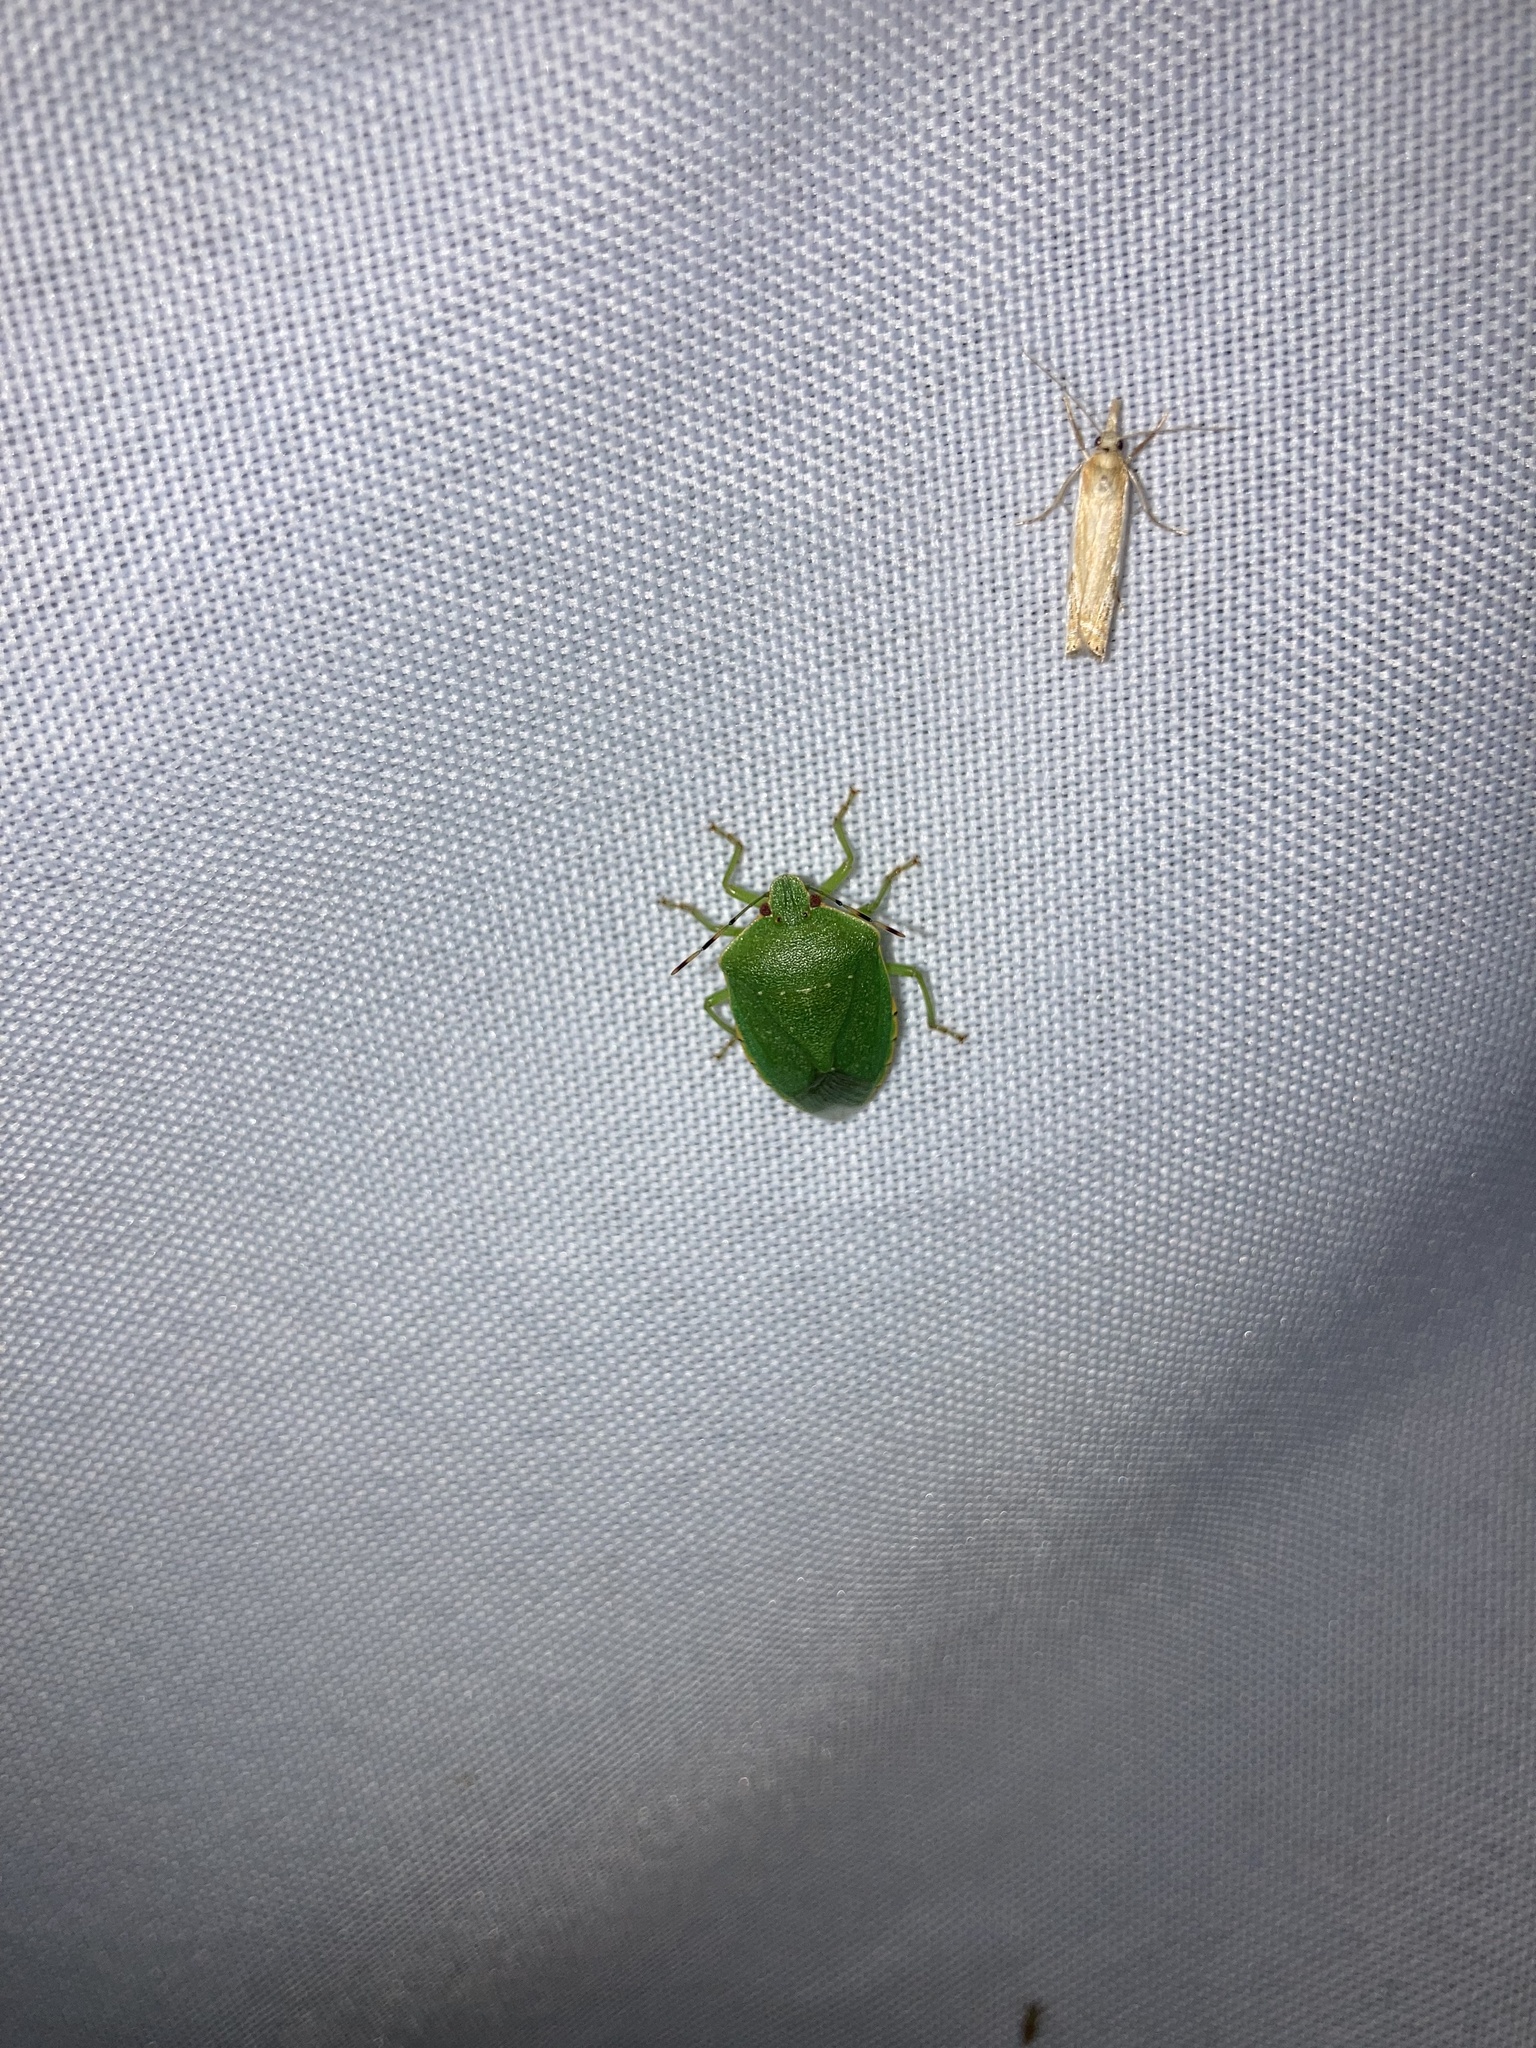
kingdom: Animalia
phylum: Arthropoda
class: Insecta
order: Hemiptera
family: Pentatomidae
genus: Chinavia
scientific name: Chinavia hilaris
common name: Green stink bug
